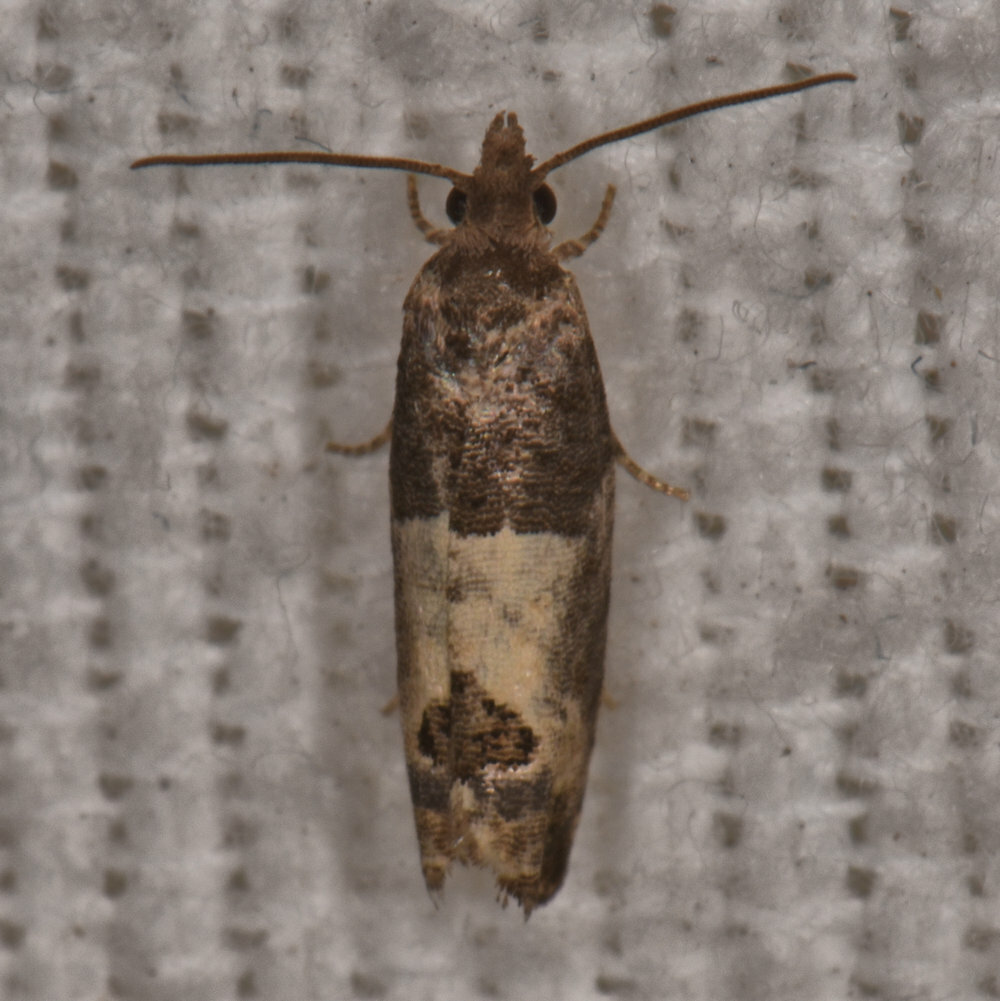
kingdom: Animalia
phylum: Arthropoda
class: Insecta
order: Lepidoptera
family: Tortricidae
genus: Spilonota
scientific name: Spilonota ocellana
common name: Bud moth
